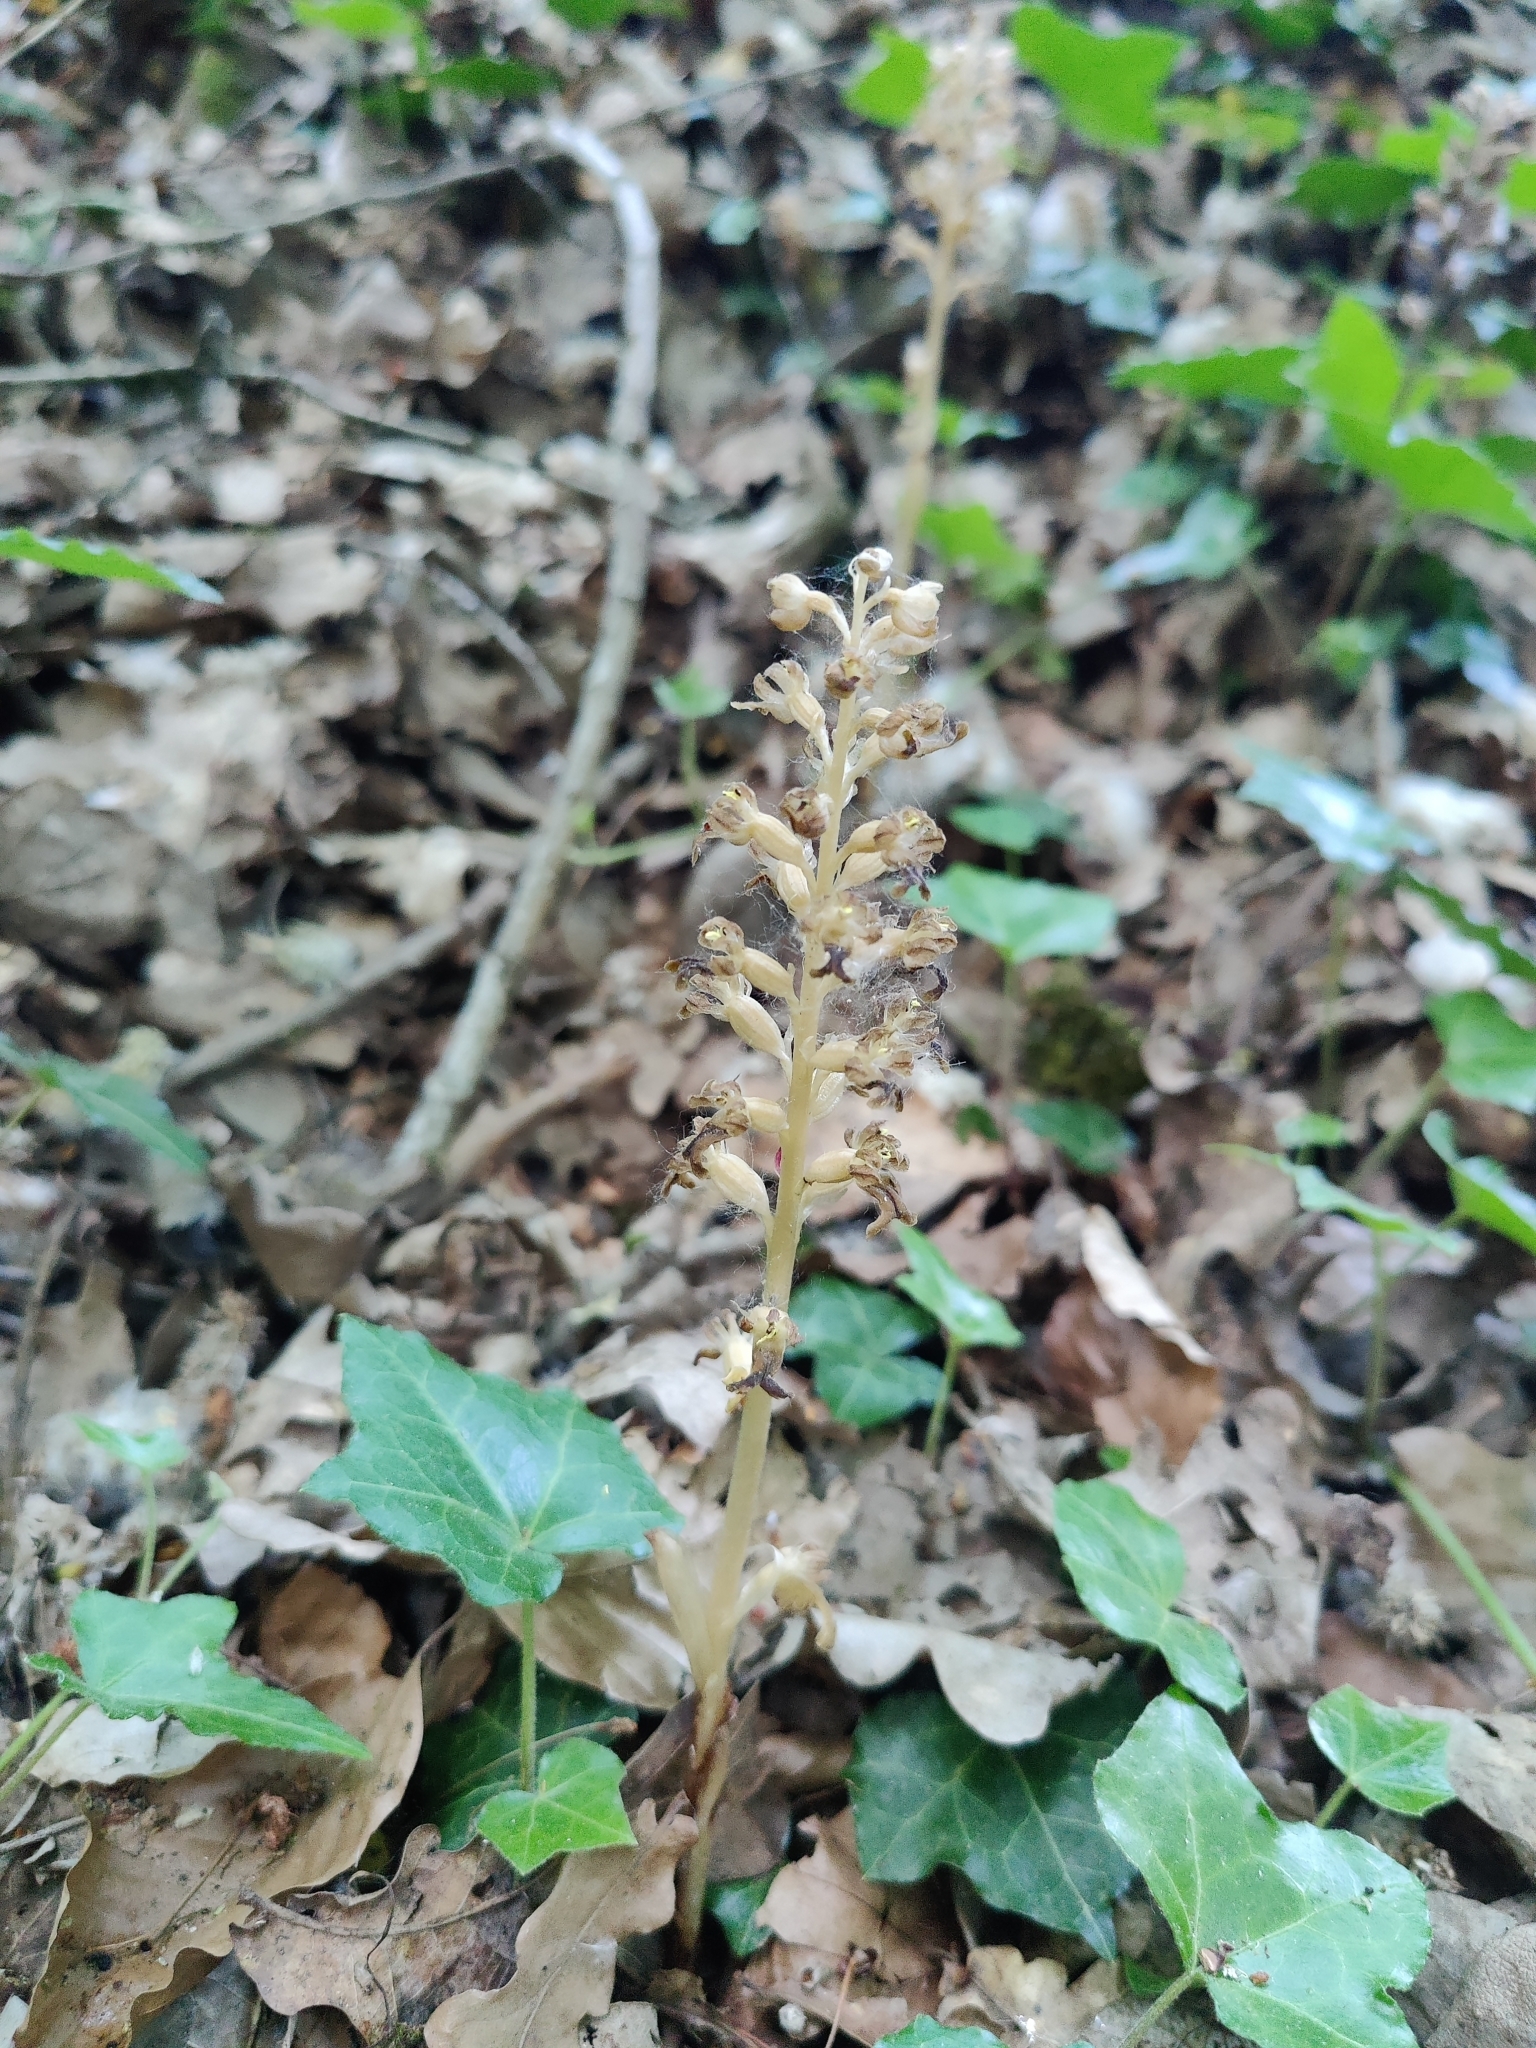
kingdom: Plantae
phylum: Tracheophyta
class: Liliopsida
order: Asparagales
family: Orchidaceae
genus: Neottia
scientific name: Neottia nidus-avis
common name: Bird's-nest orchid
